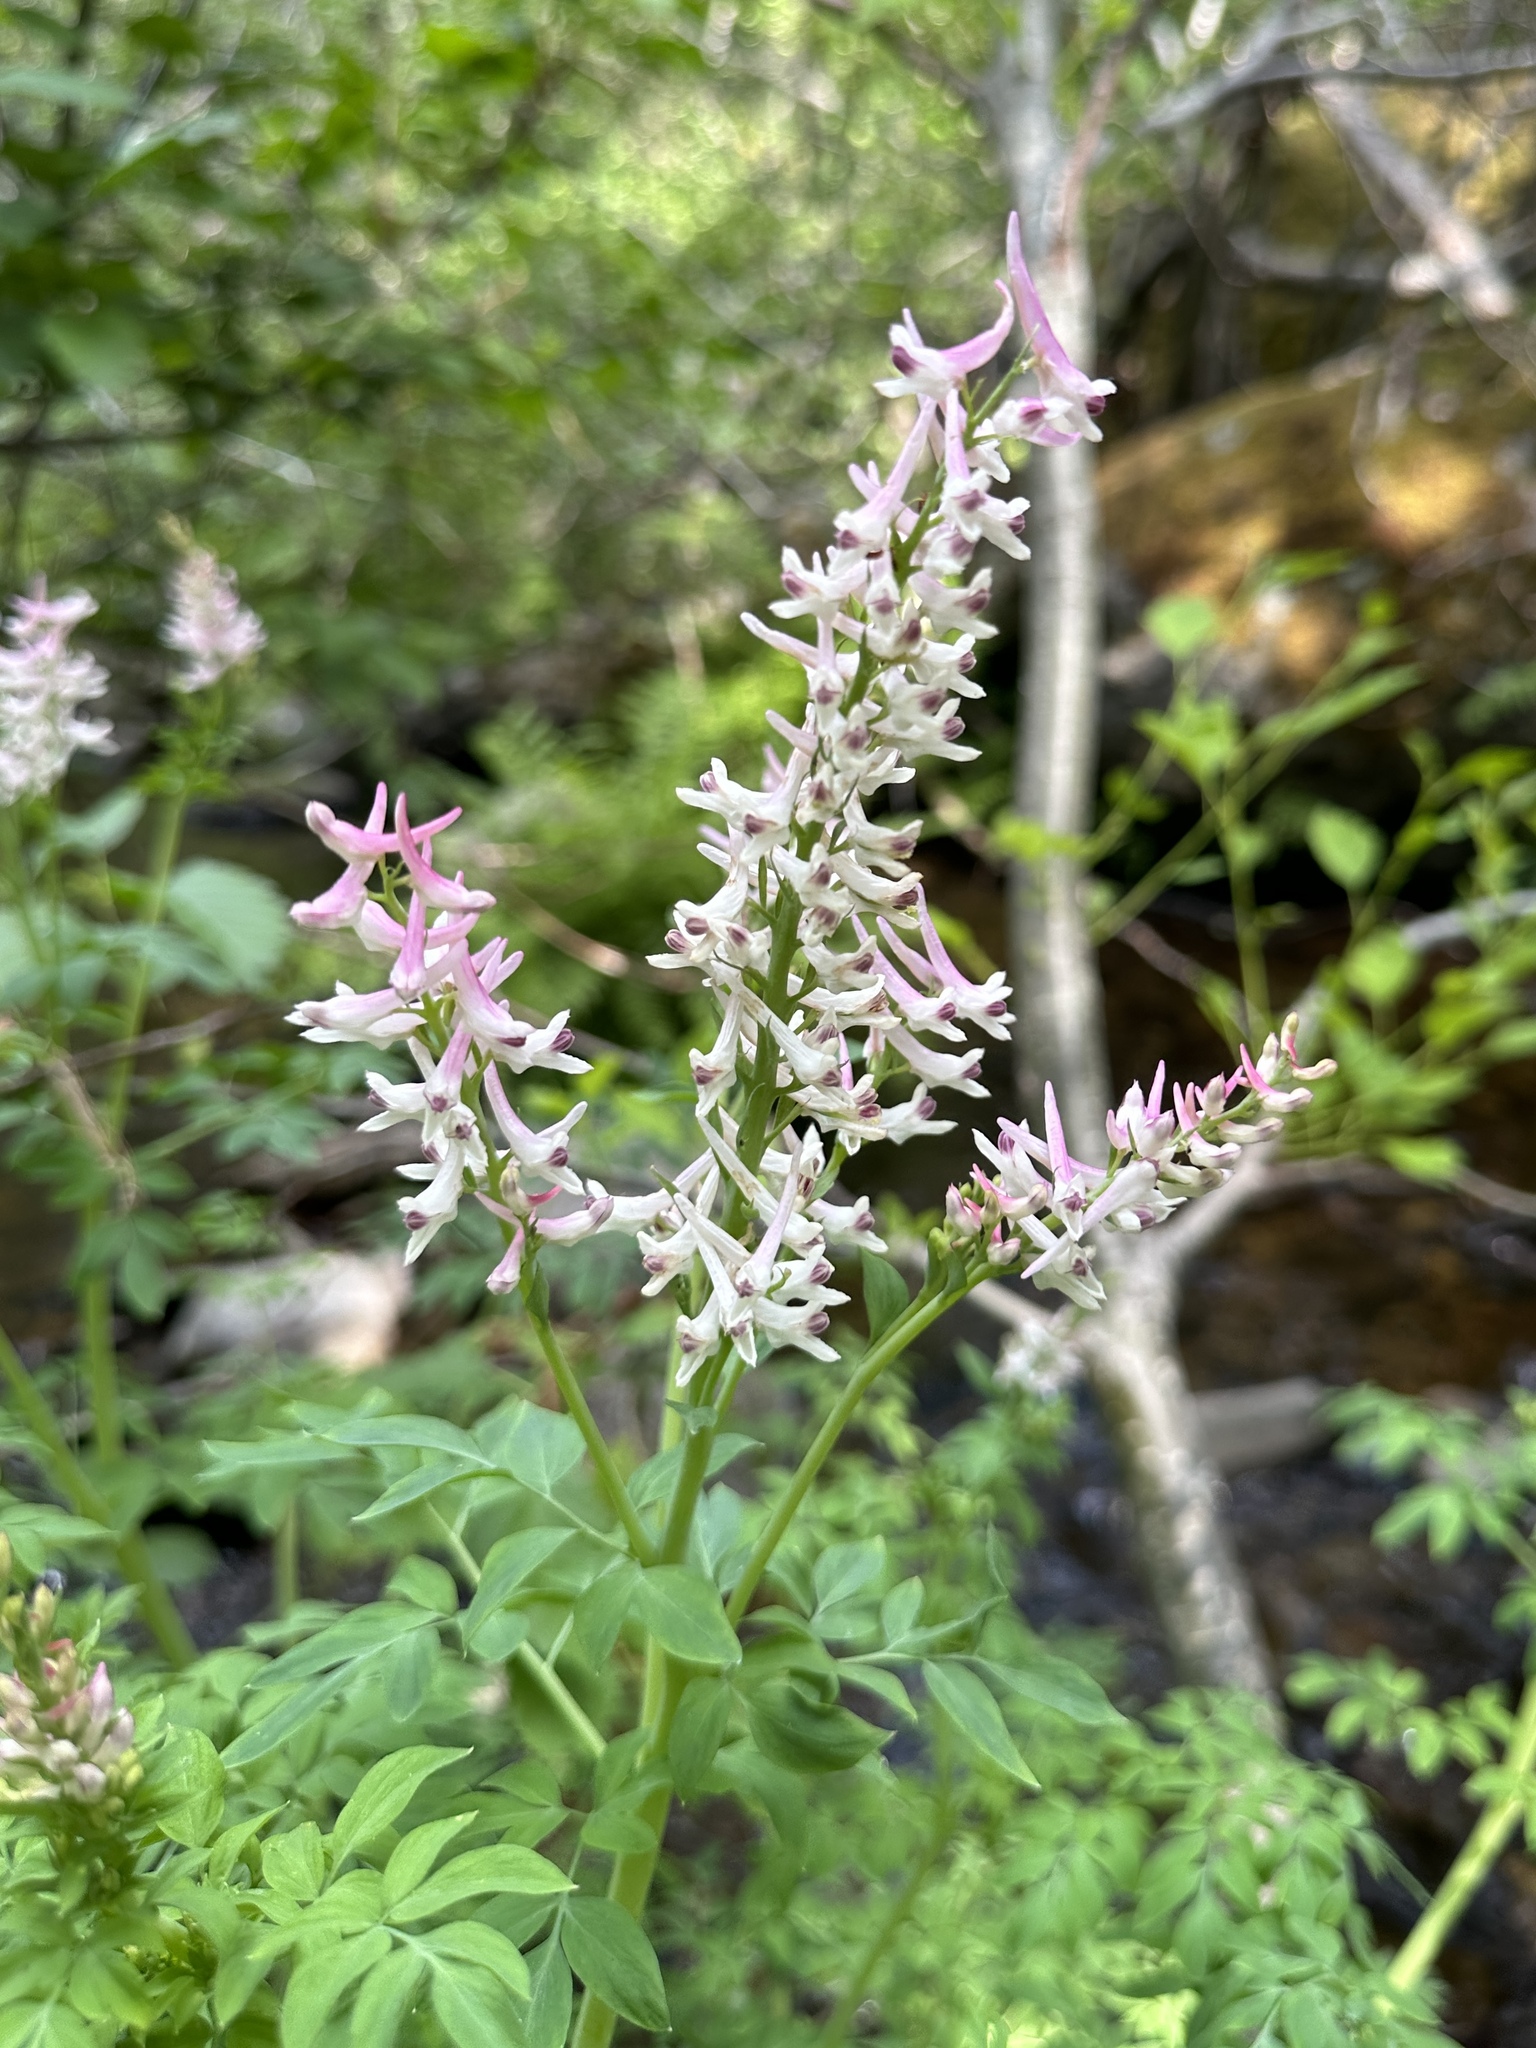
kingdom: Plantae
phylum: Tracheophyta
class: Magnoliopsida
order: Ranunculales
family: Papaveraceae
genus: Corydalis
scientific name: Corydalis caseana
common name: Fitweed
